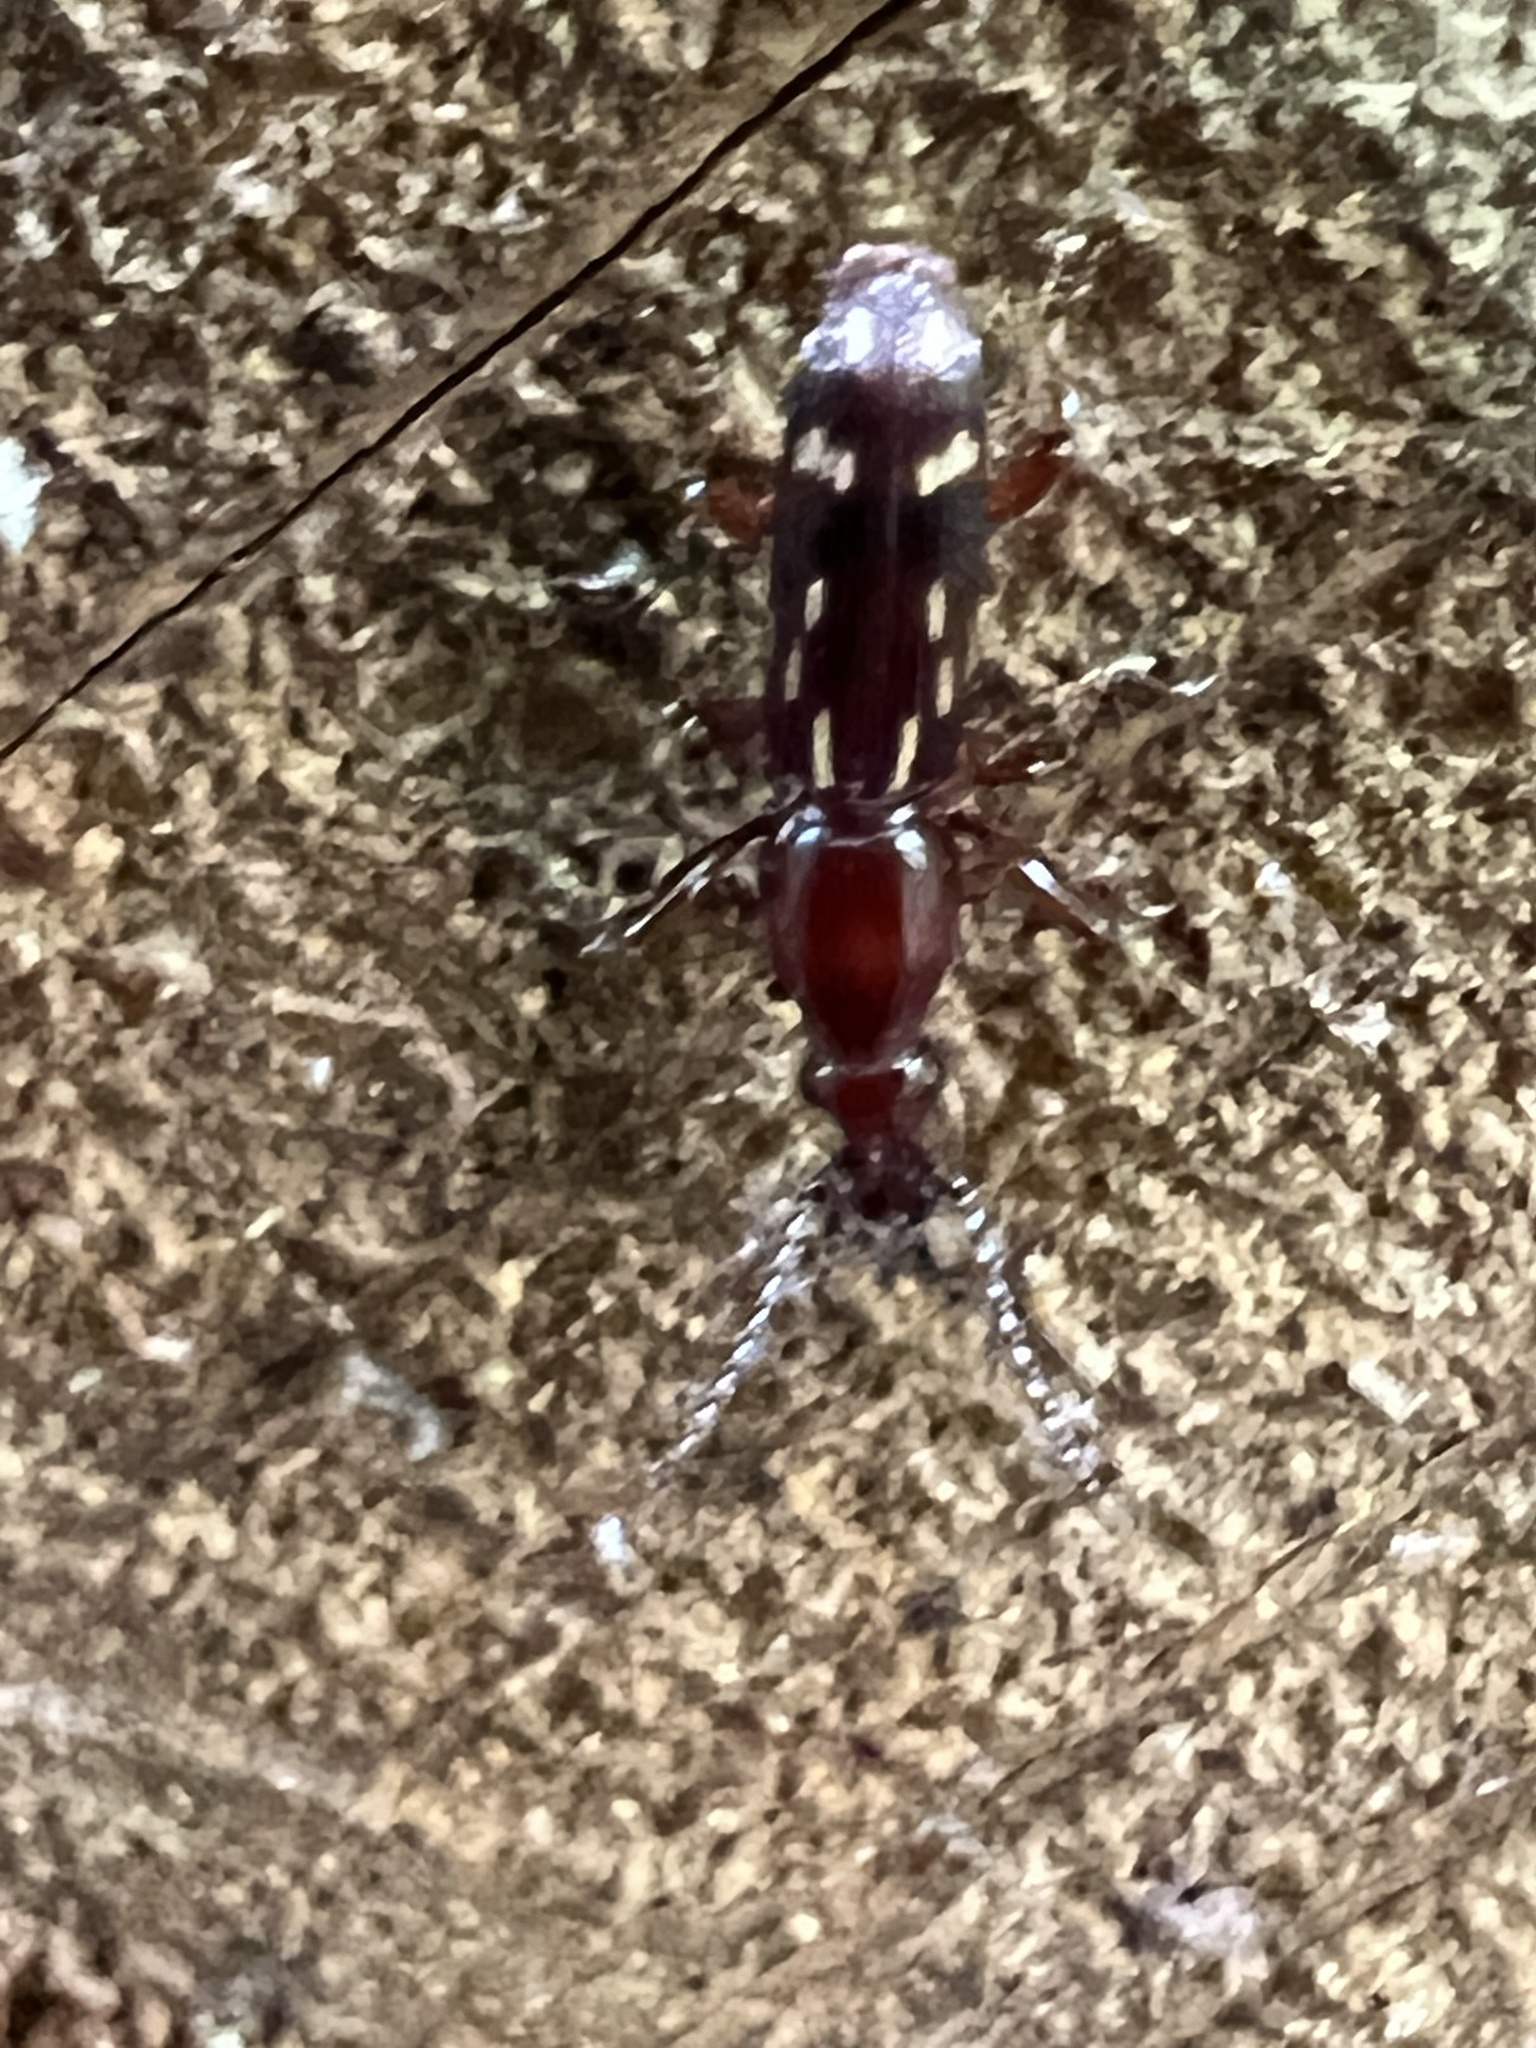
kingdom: Animalia
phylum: Arthropoda
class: Insecta
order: Coleoptera
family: Brentidae
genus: Arrenodes
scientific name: Arrenodes minutus
